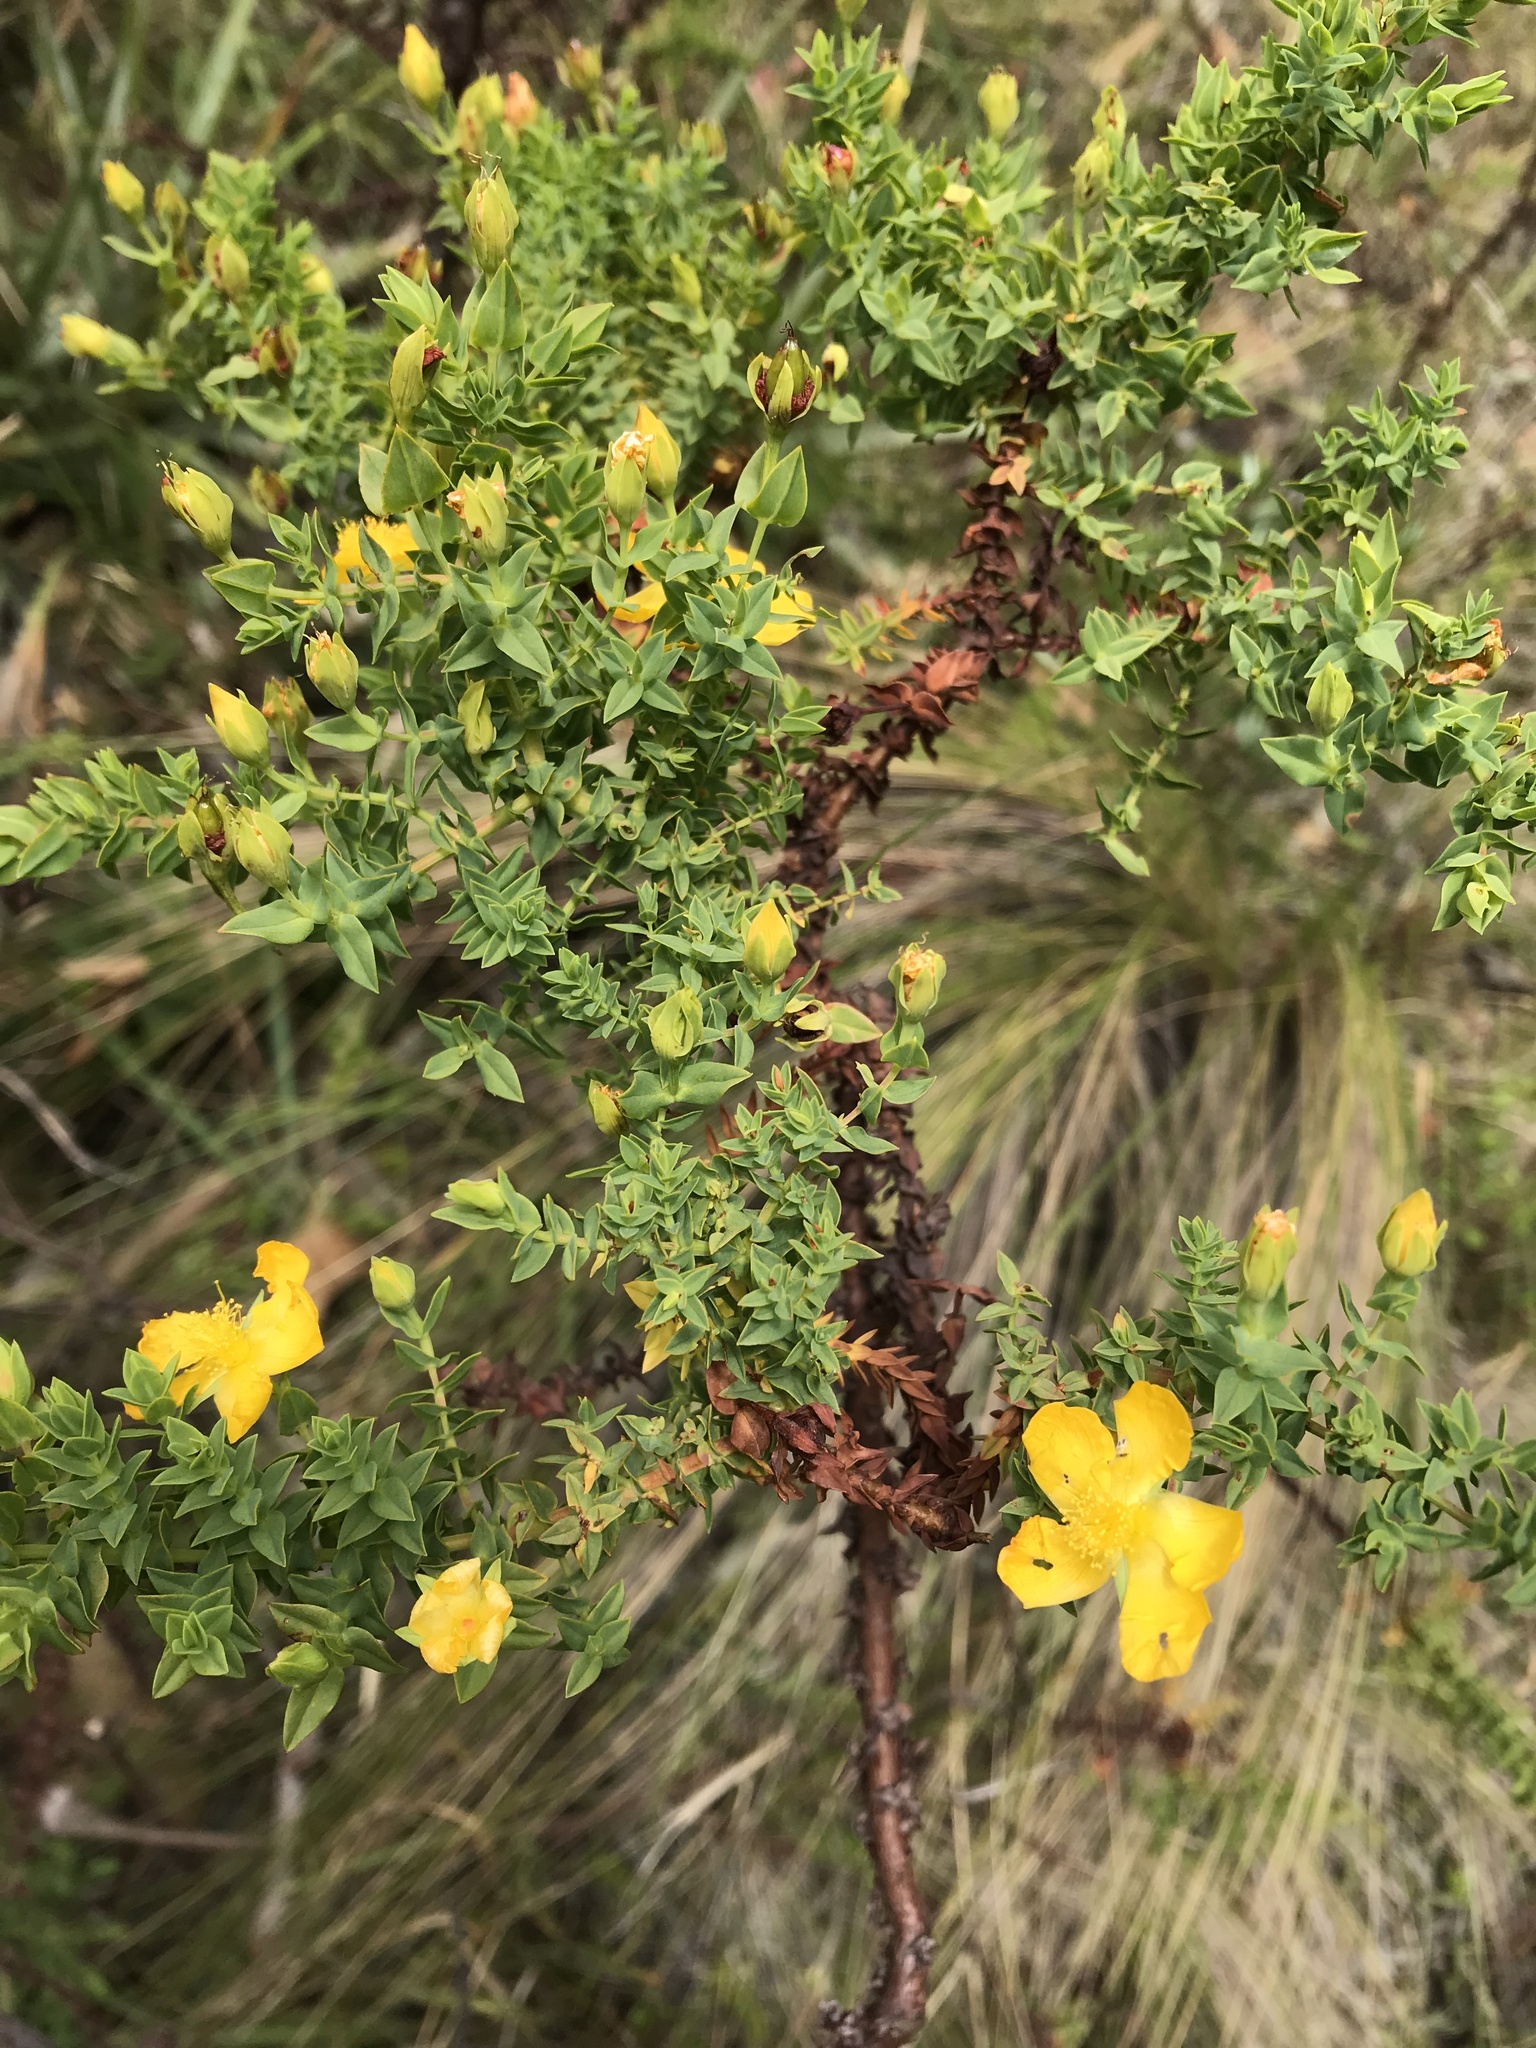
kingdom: Plantae
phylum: Tracheophyta
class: Magnoliopsida
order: Malpighiales
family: Hypericaceae
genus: Hypericum
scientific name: Hypericum goyanesii
